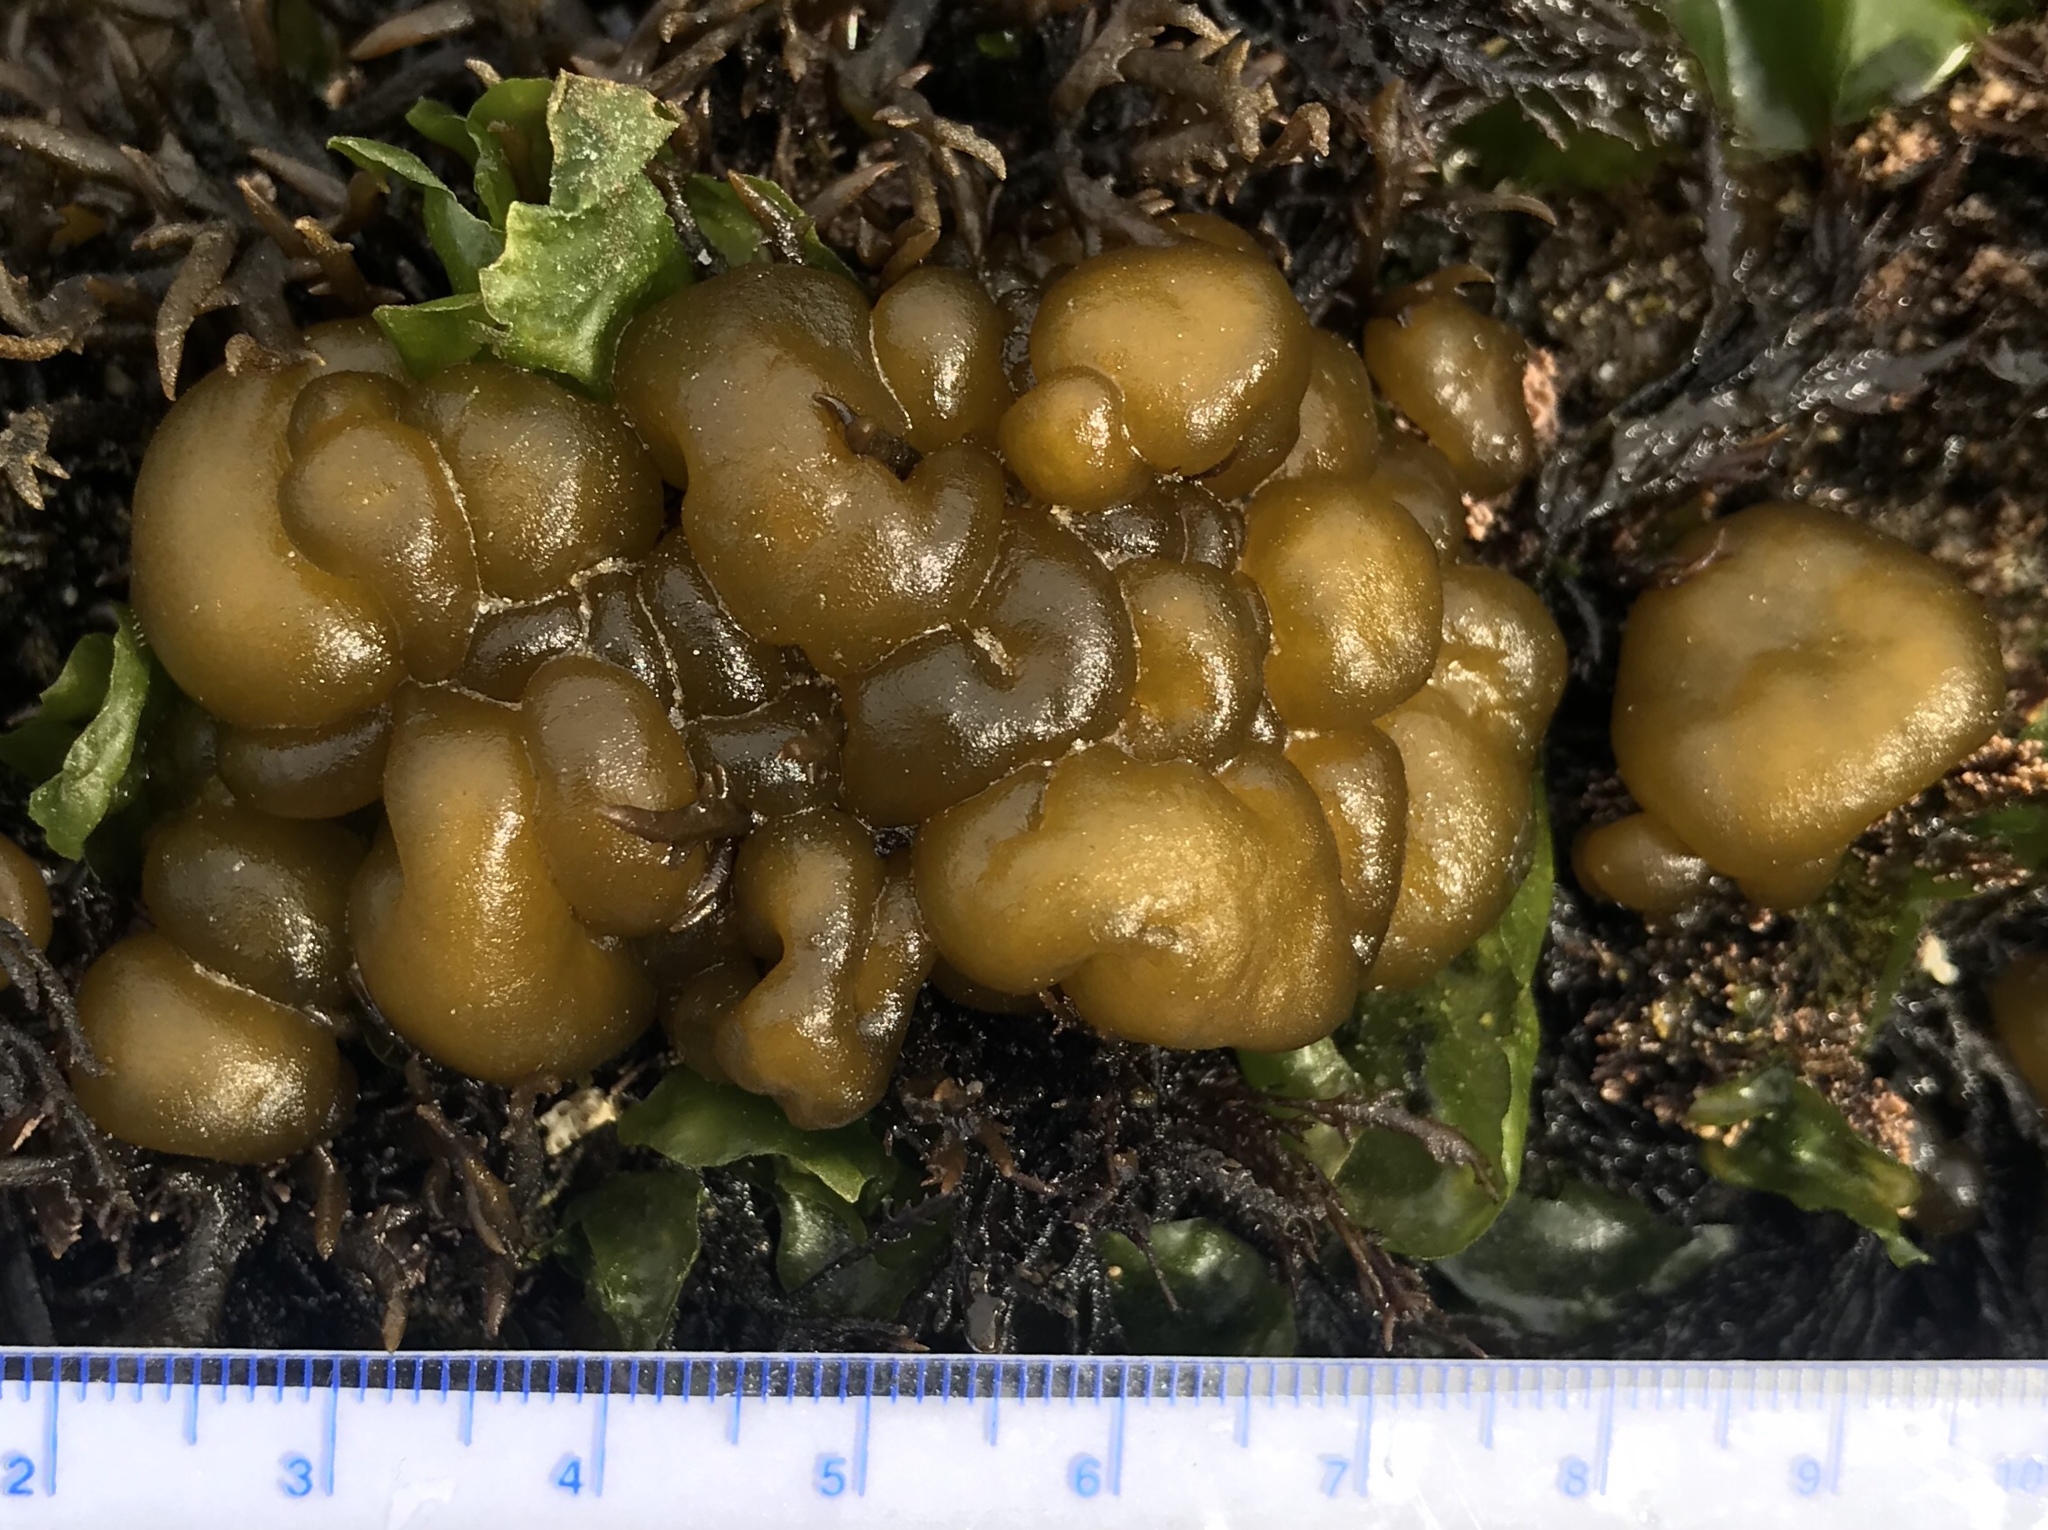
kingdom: Chromista
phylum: Ochrophyta
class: Phaeophyceae
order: Ectocarpales
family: Chordariaceae
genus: Leathesia
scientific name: Leathesia marina
